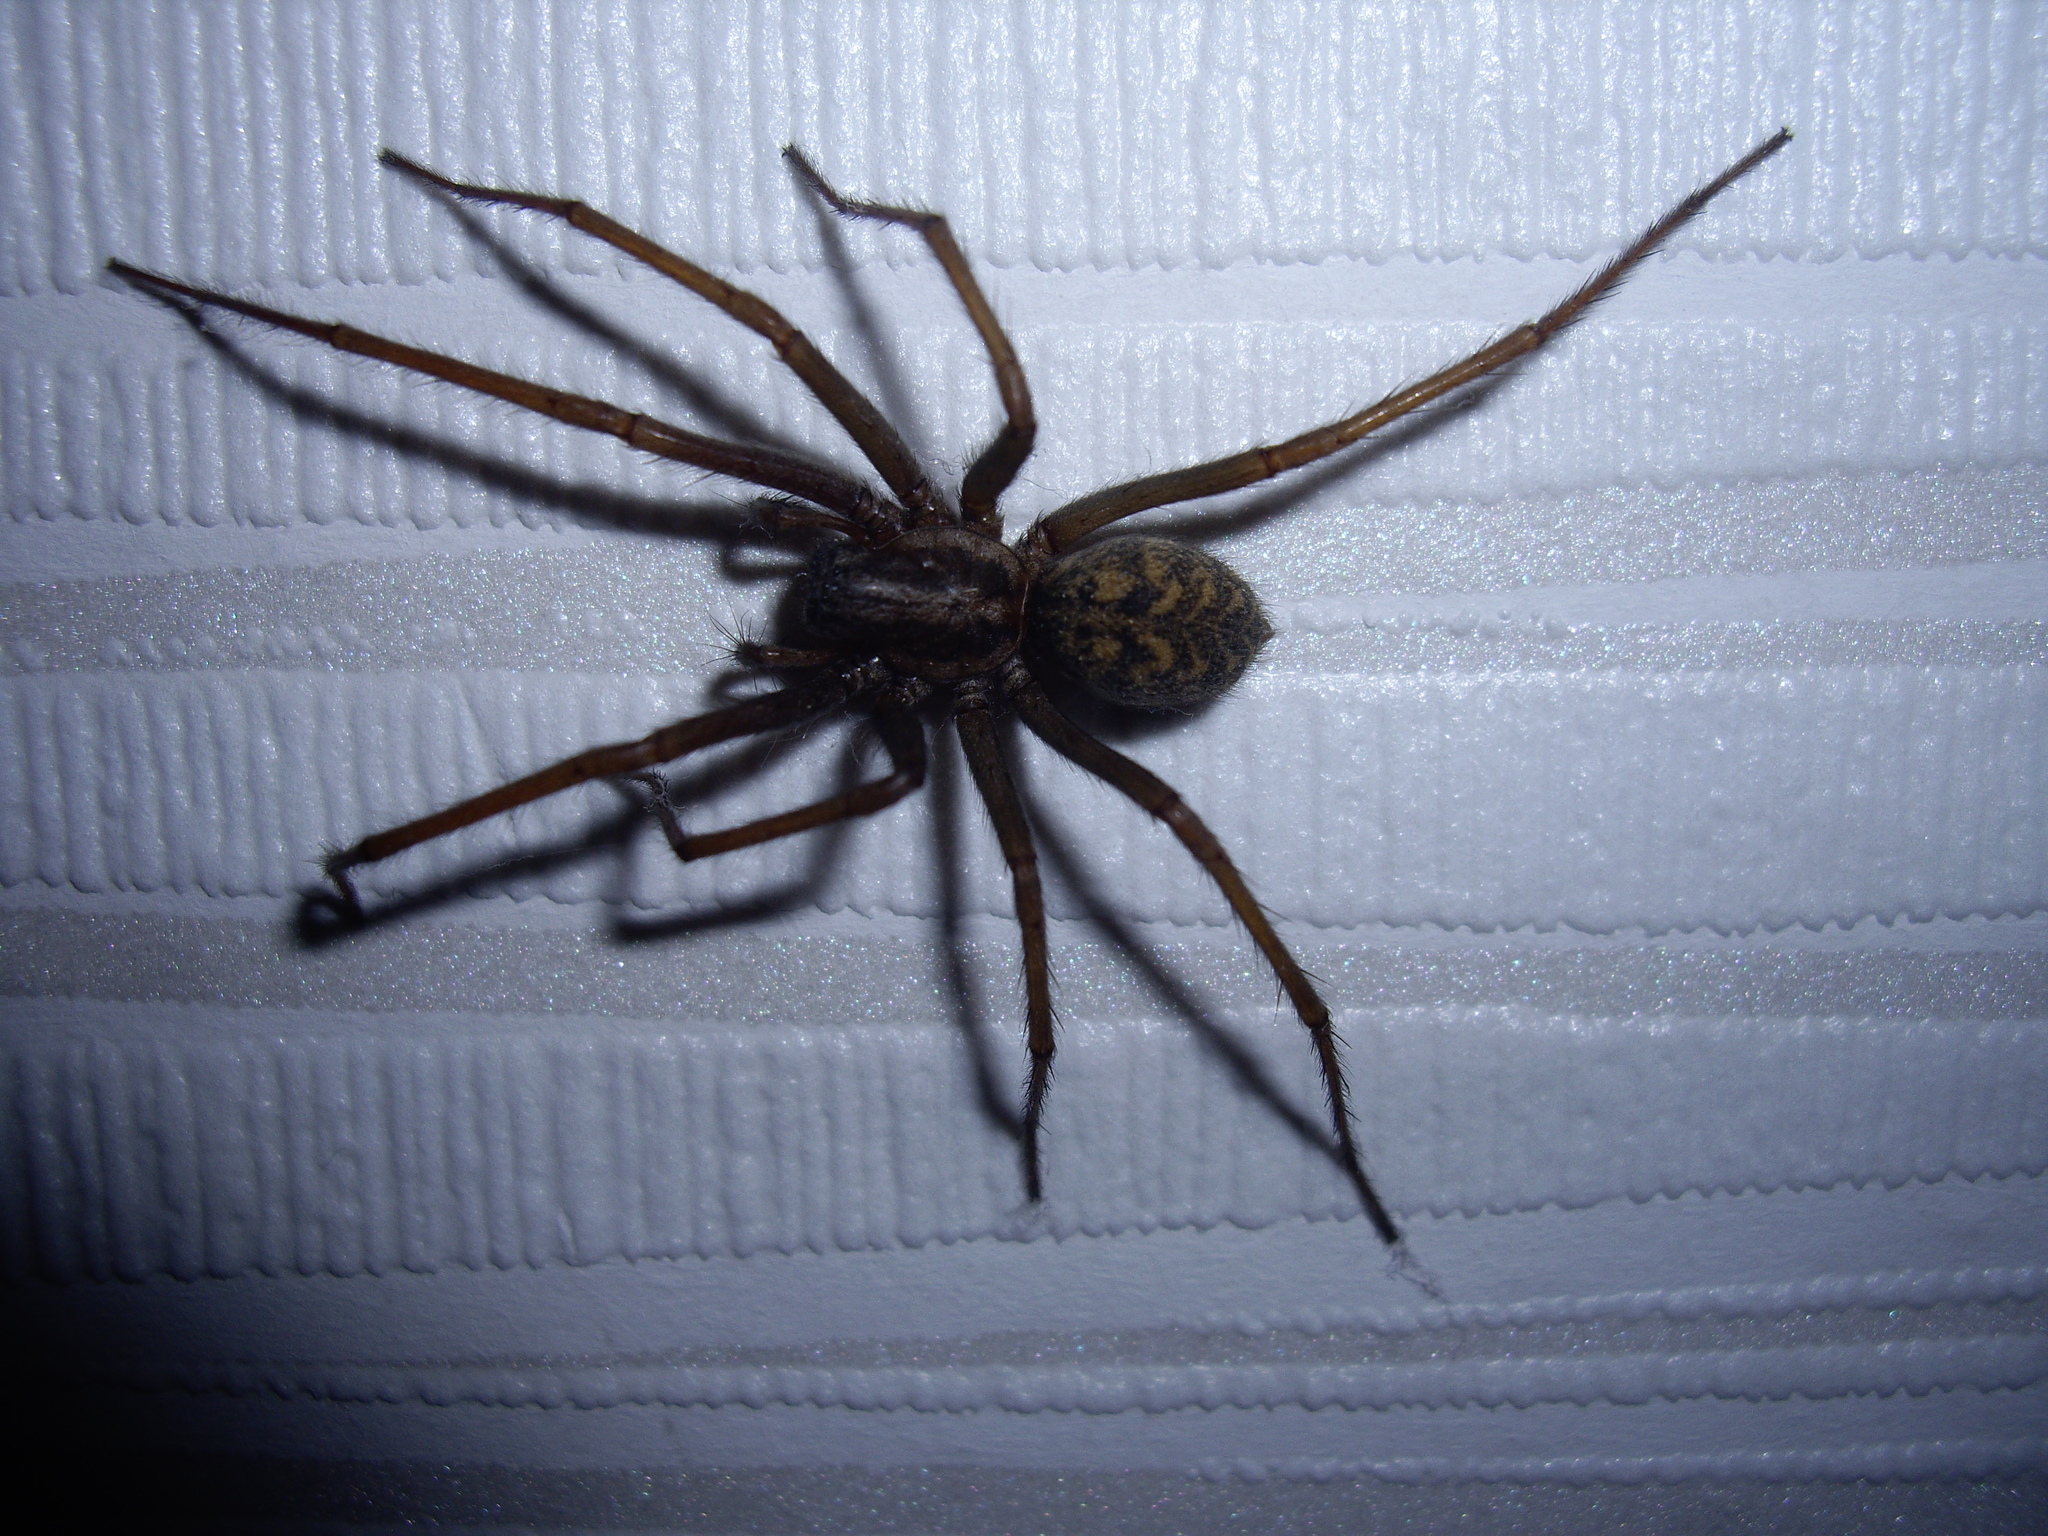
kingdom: Animalia
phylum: Arthropoda
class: Arachnida
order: Araneae
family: Agelenidae
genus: Eratigena
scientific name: Eratigena atrica
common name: Giant house spider
